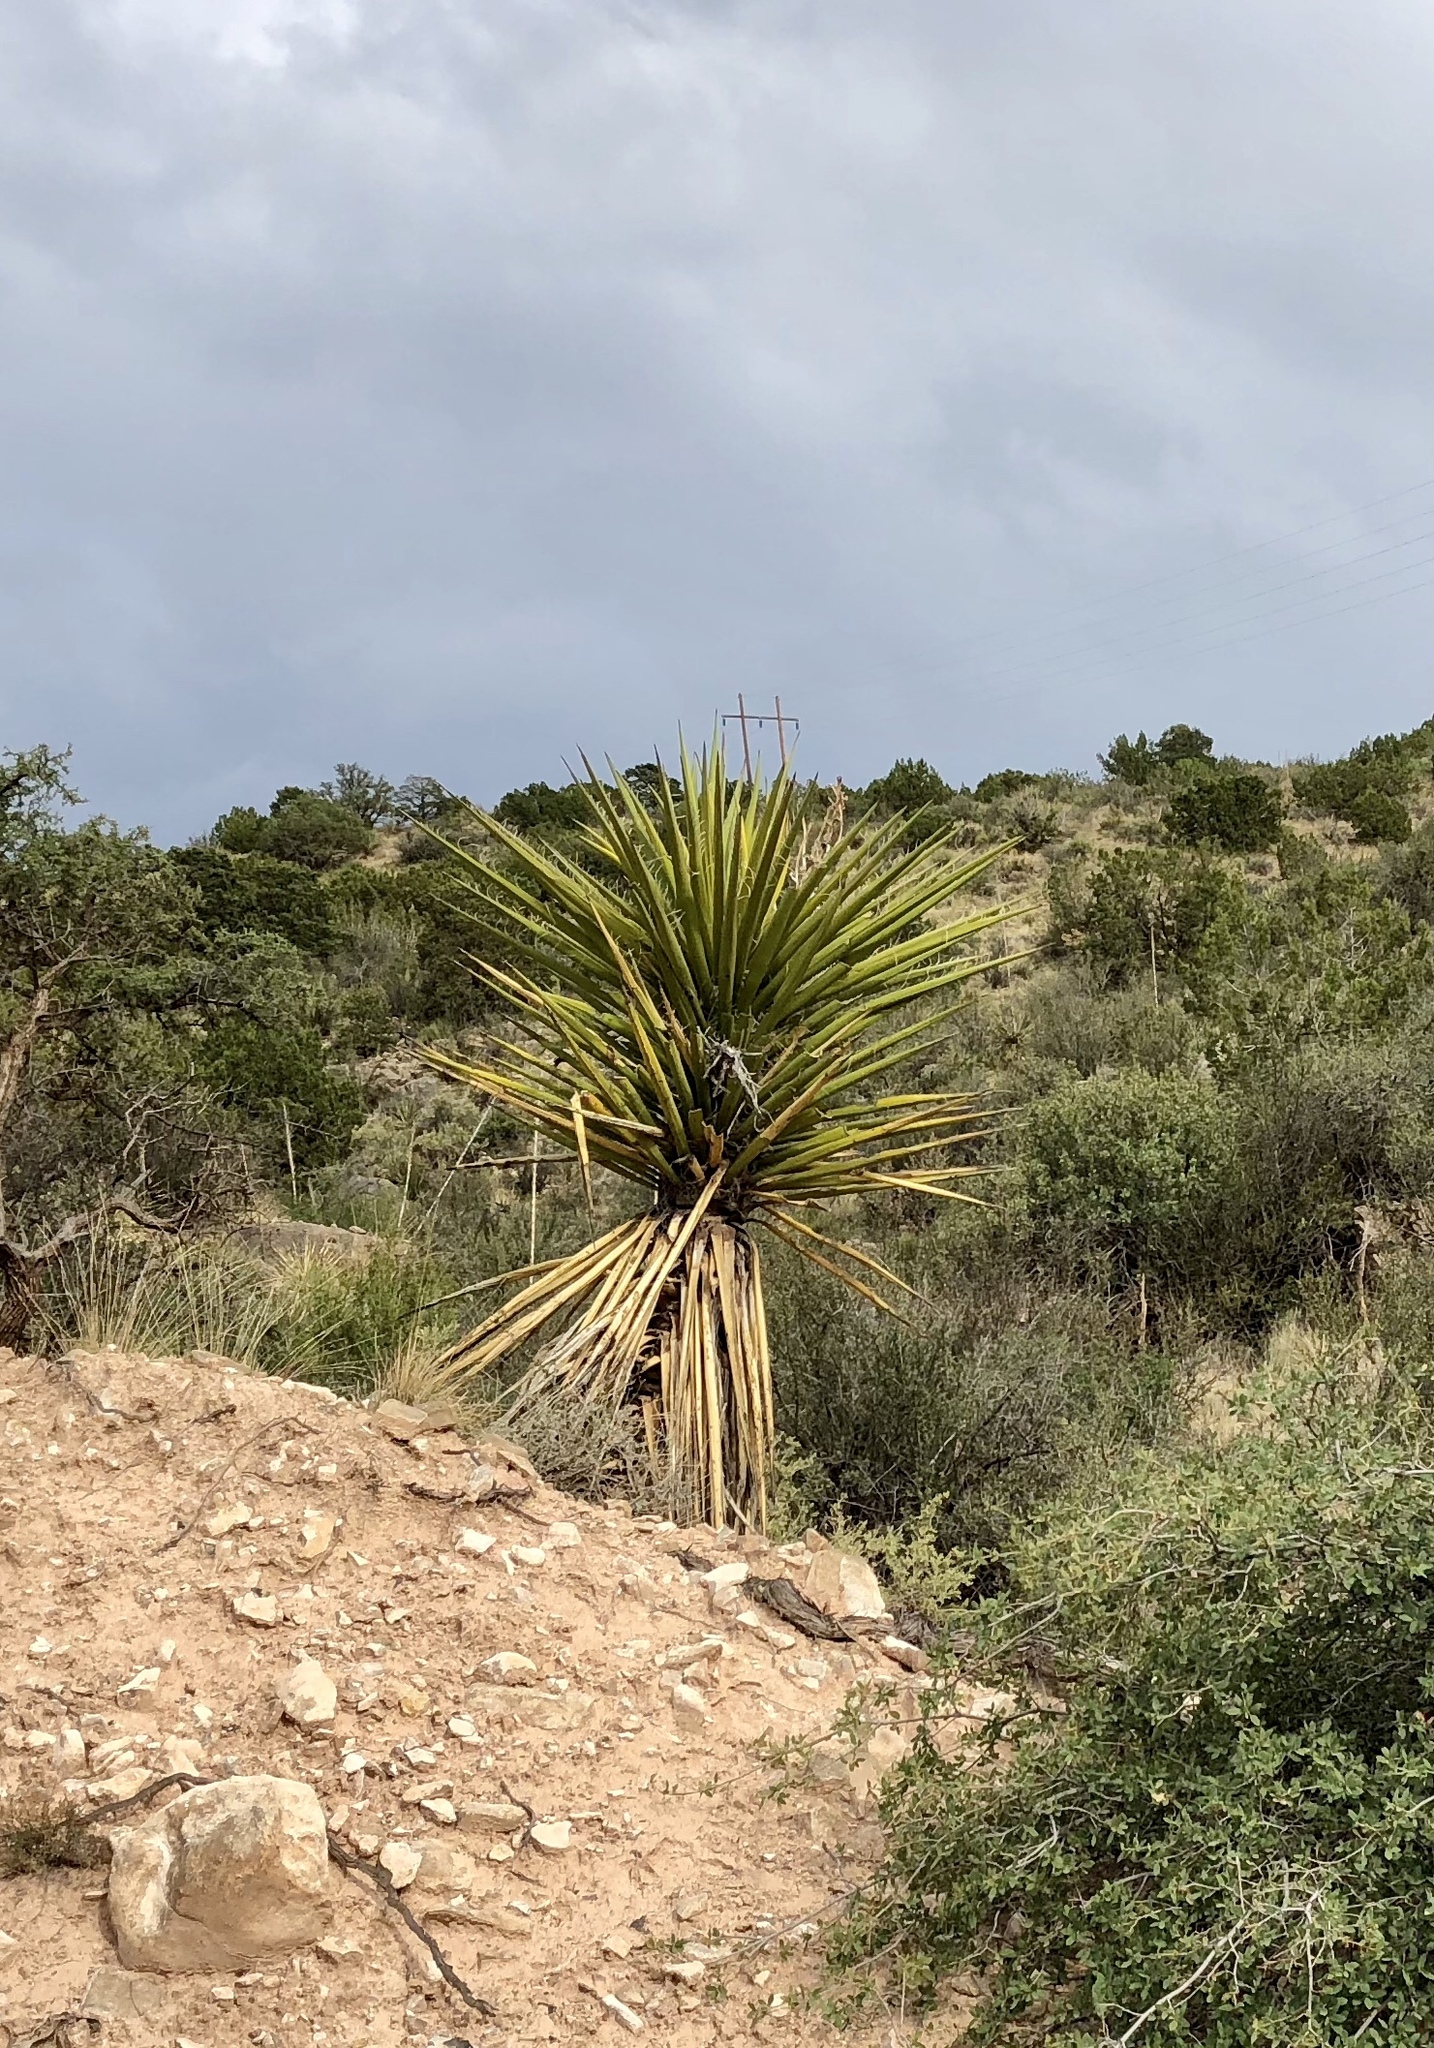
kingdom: Plantae
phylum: Tracheophyta
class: Liliopsida
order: Asparagales
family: Asparagaceae
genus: Yucca
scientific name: Yucca treculiana
